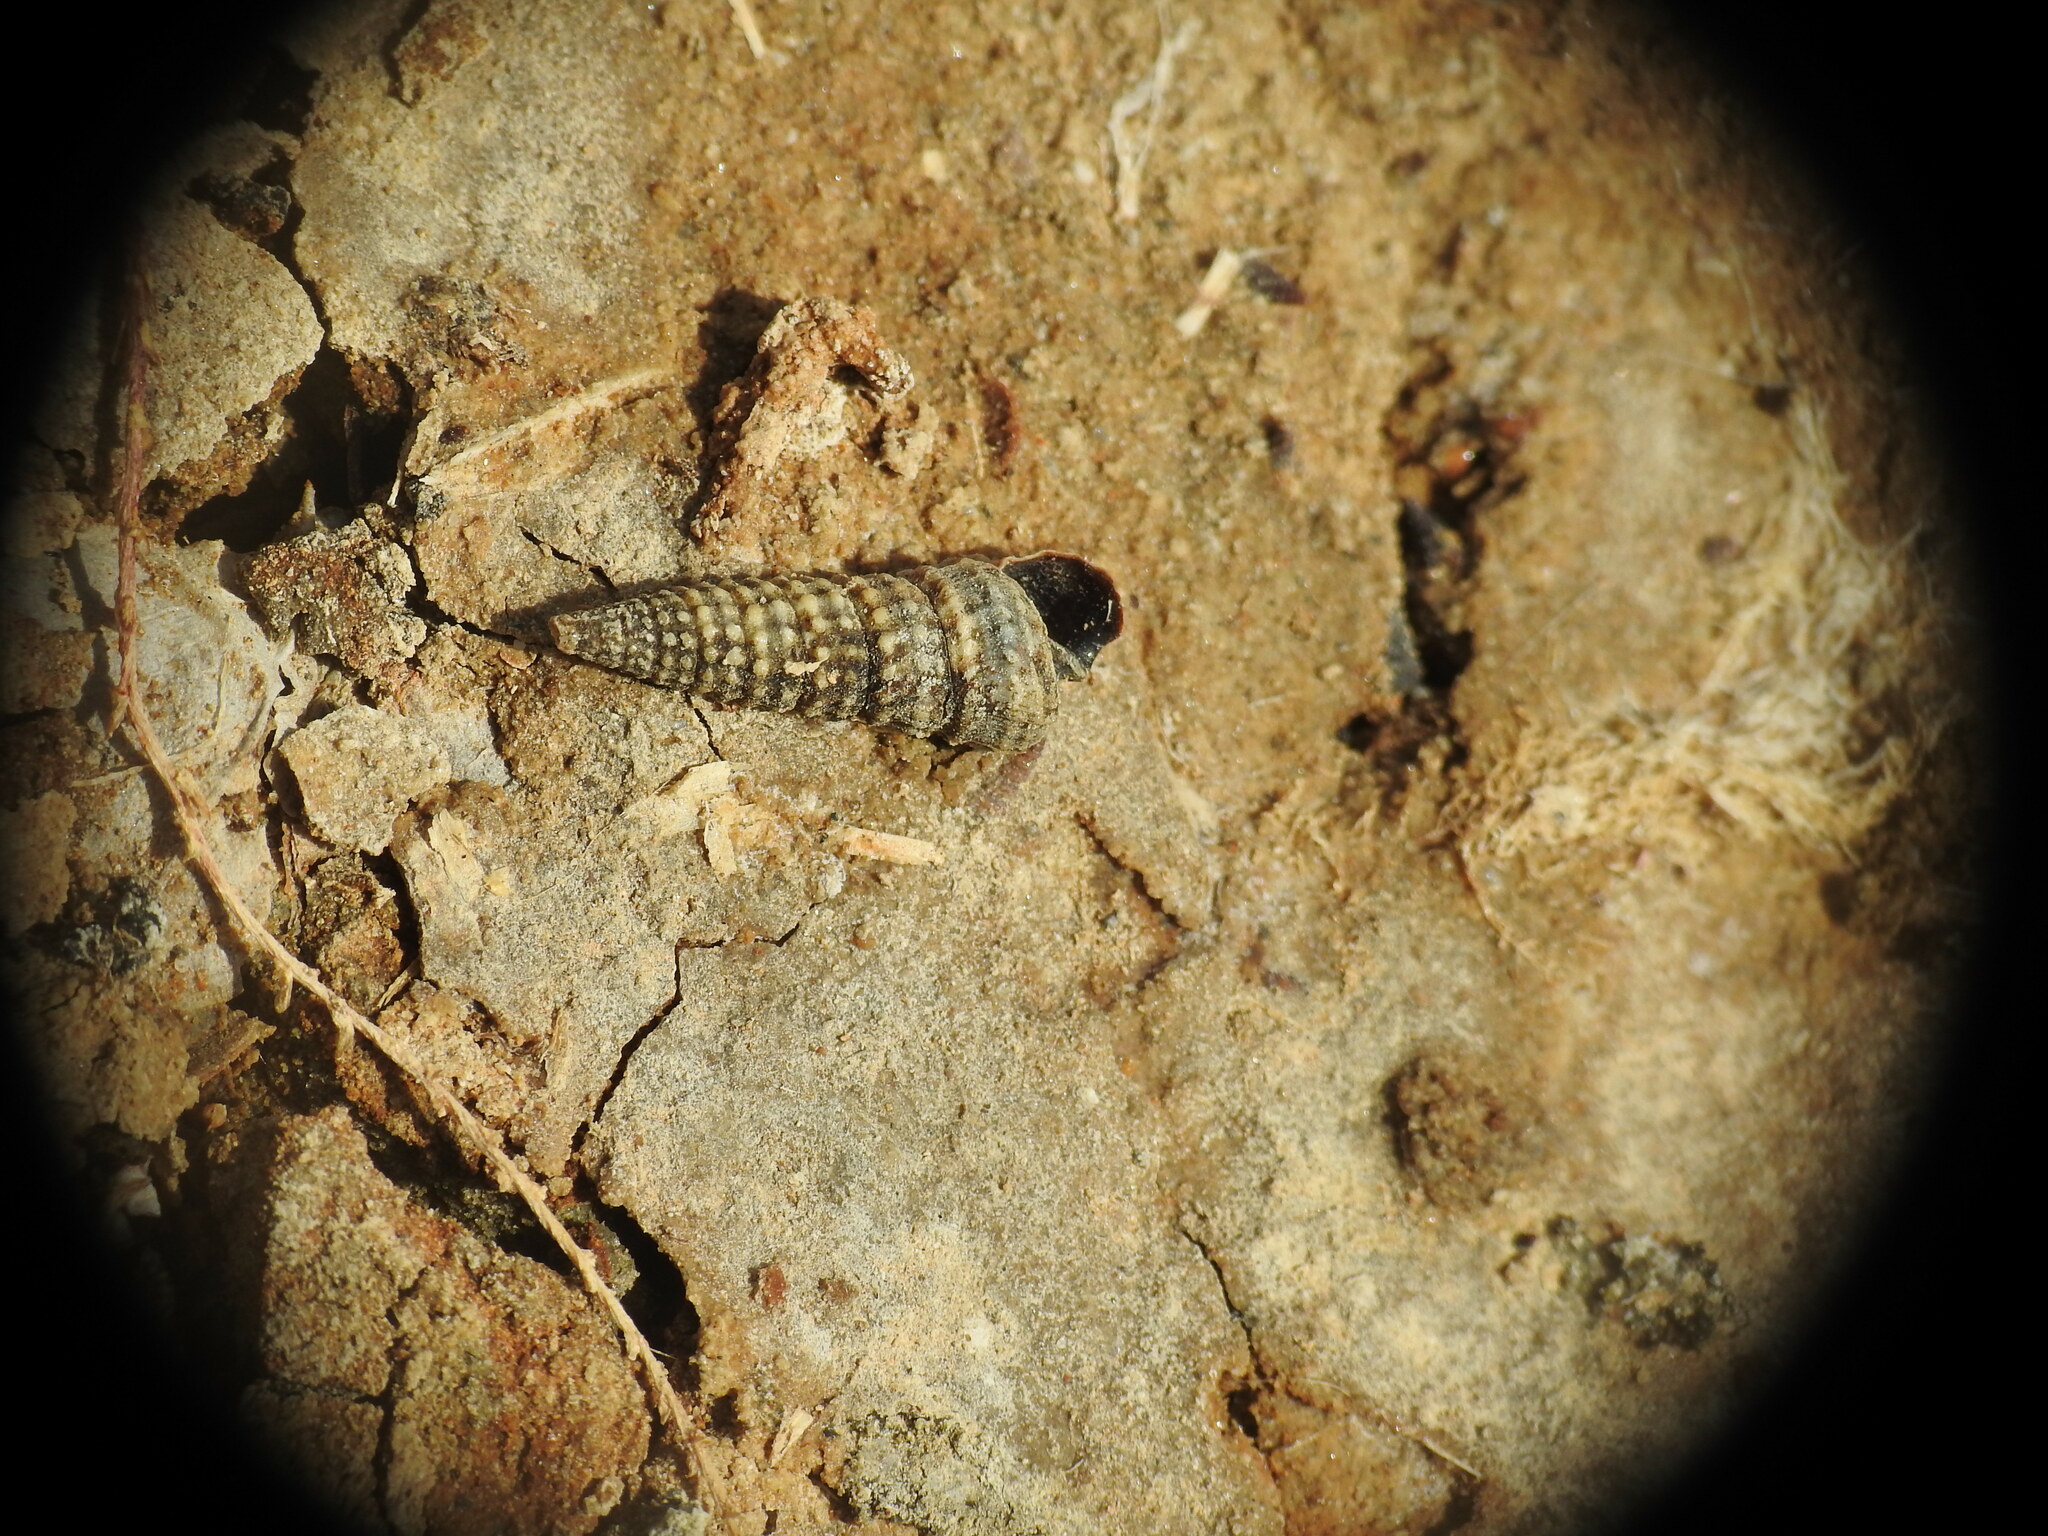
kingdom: Animalia
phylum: Mollusca
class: Gastropoda
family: Potamididae
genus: Pirenella
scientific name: Pirenella conica
